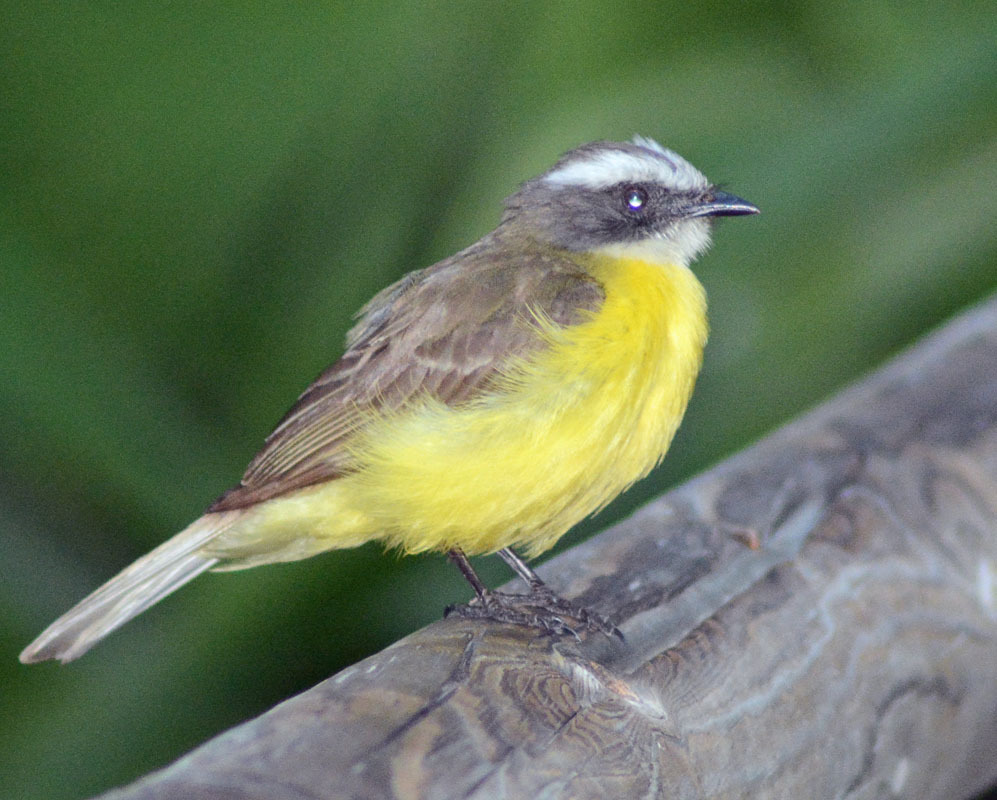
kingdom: Animalia
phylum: Chordata
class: Aves
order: Passeriformes
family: Tyrannidae
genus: Myiozetetes
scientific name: Myiozetetes similis
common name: Social flycatcher
